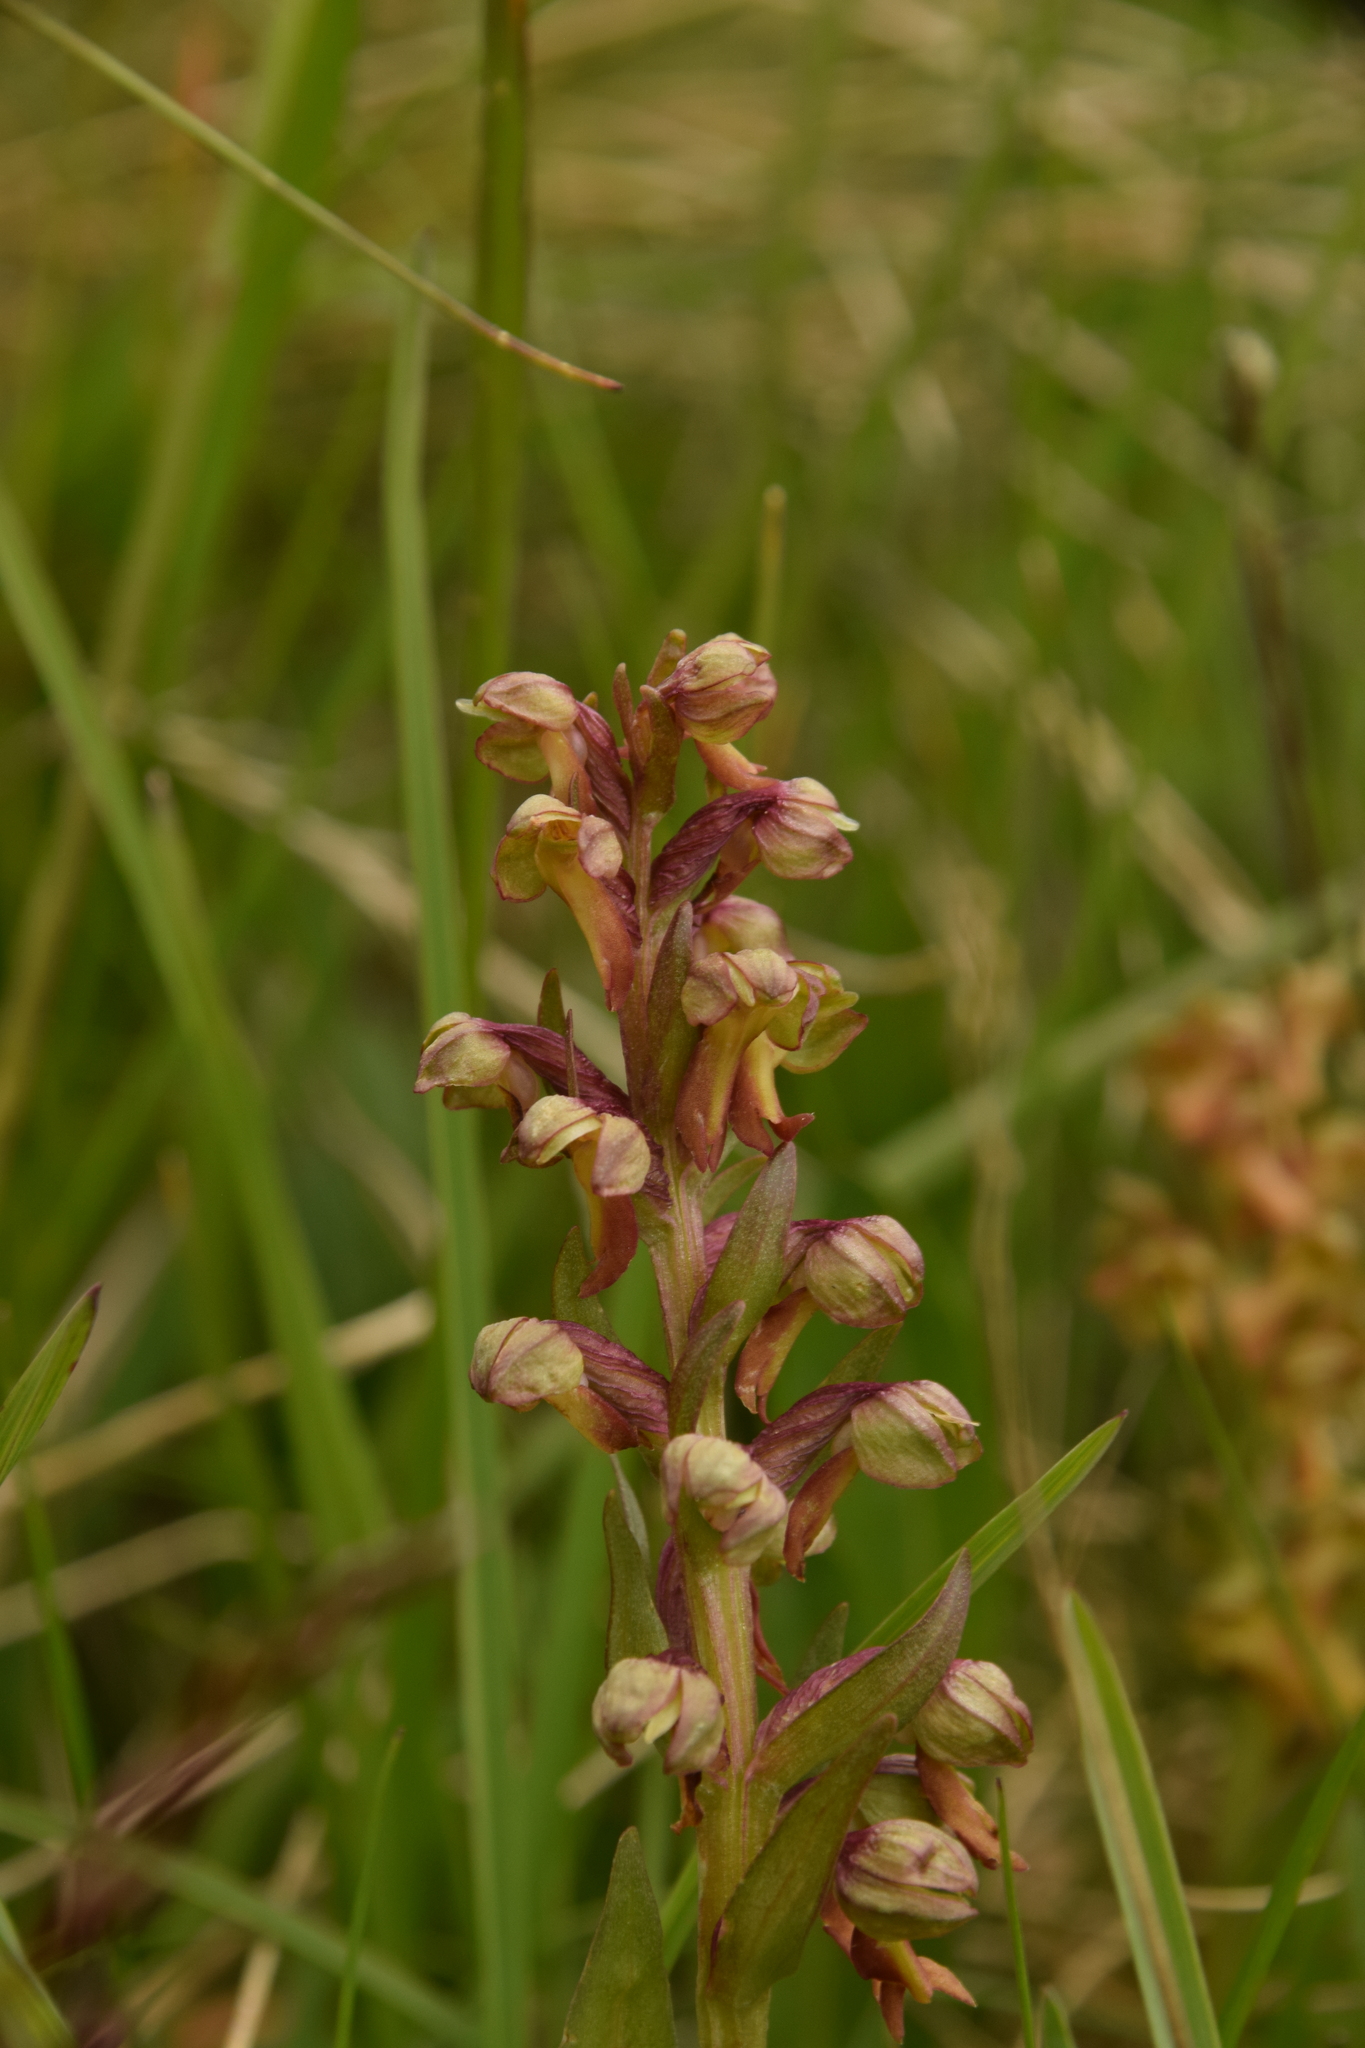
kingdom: Plantae
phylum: Tracheophyta
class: Liliopsida
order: Asparagales
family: Orchidaceae
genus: Dactylorhiza
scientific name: Dactylorhiza viridis
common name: Longbract frog orchid
